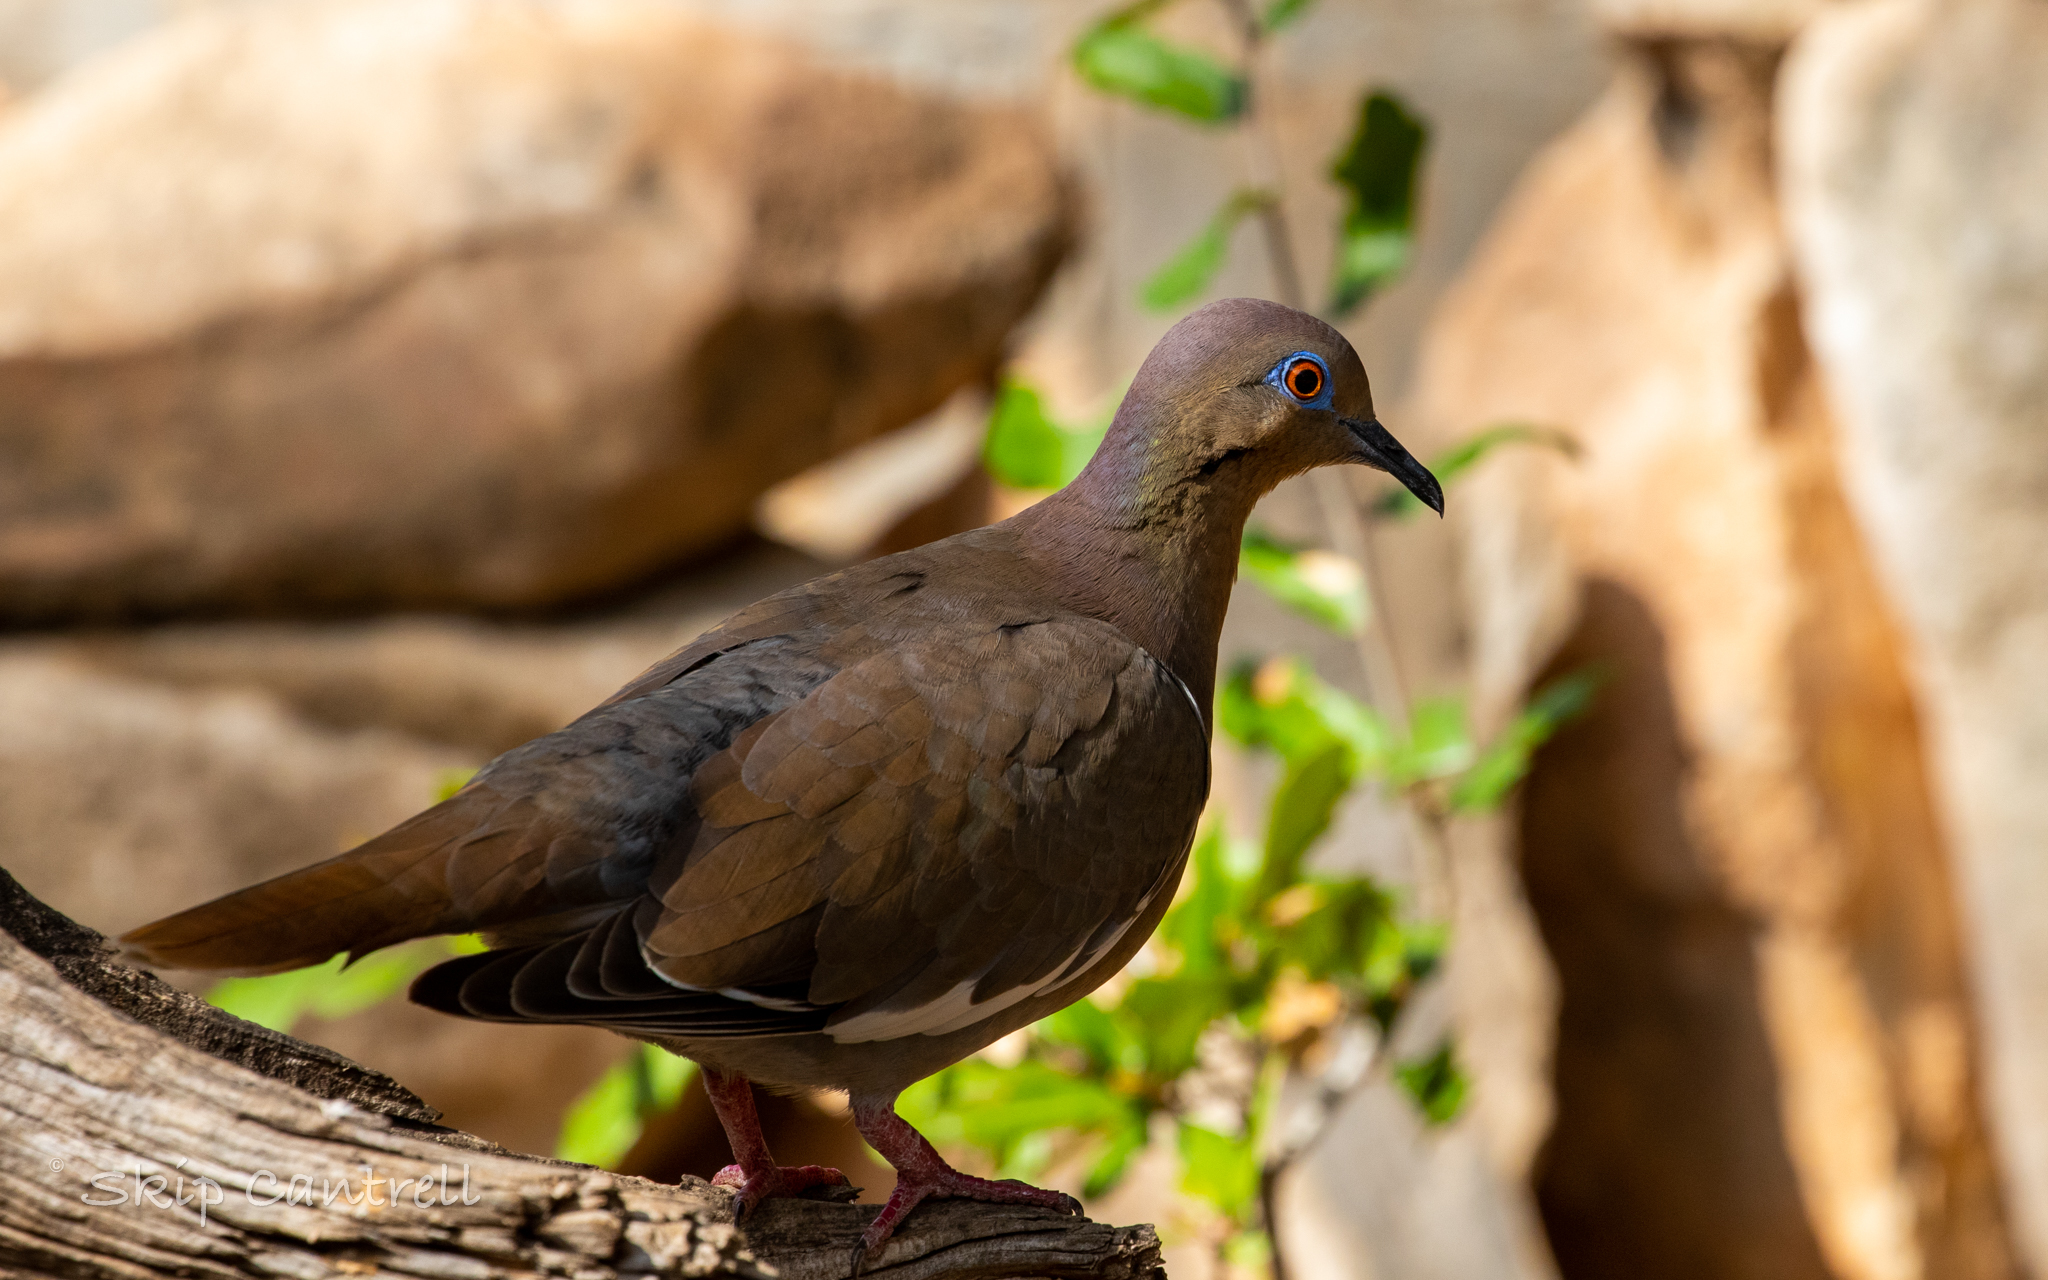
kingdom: Animalia
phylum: Chordata
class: Aves
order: Columbiformes
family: Columbidae
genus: Zenaida
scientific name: Zenaida asiatica
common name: White-winged dove
